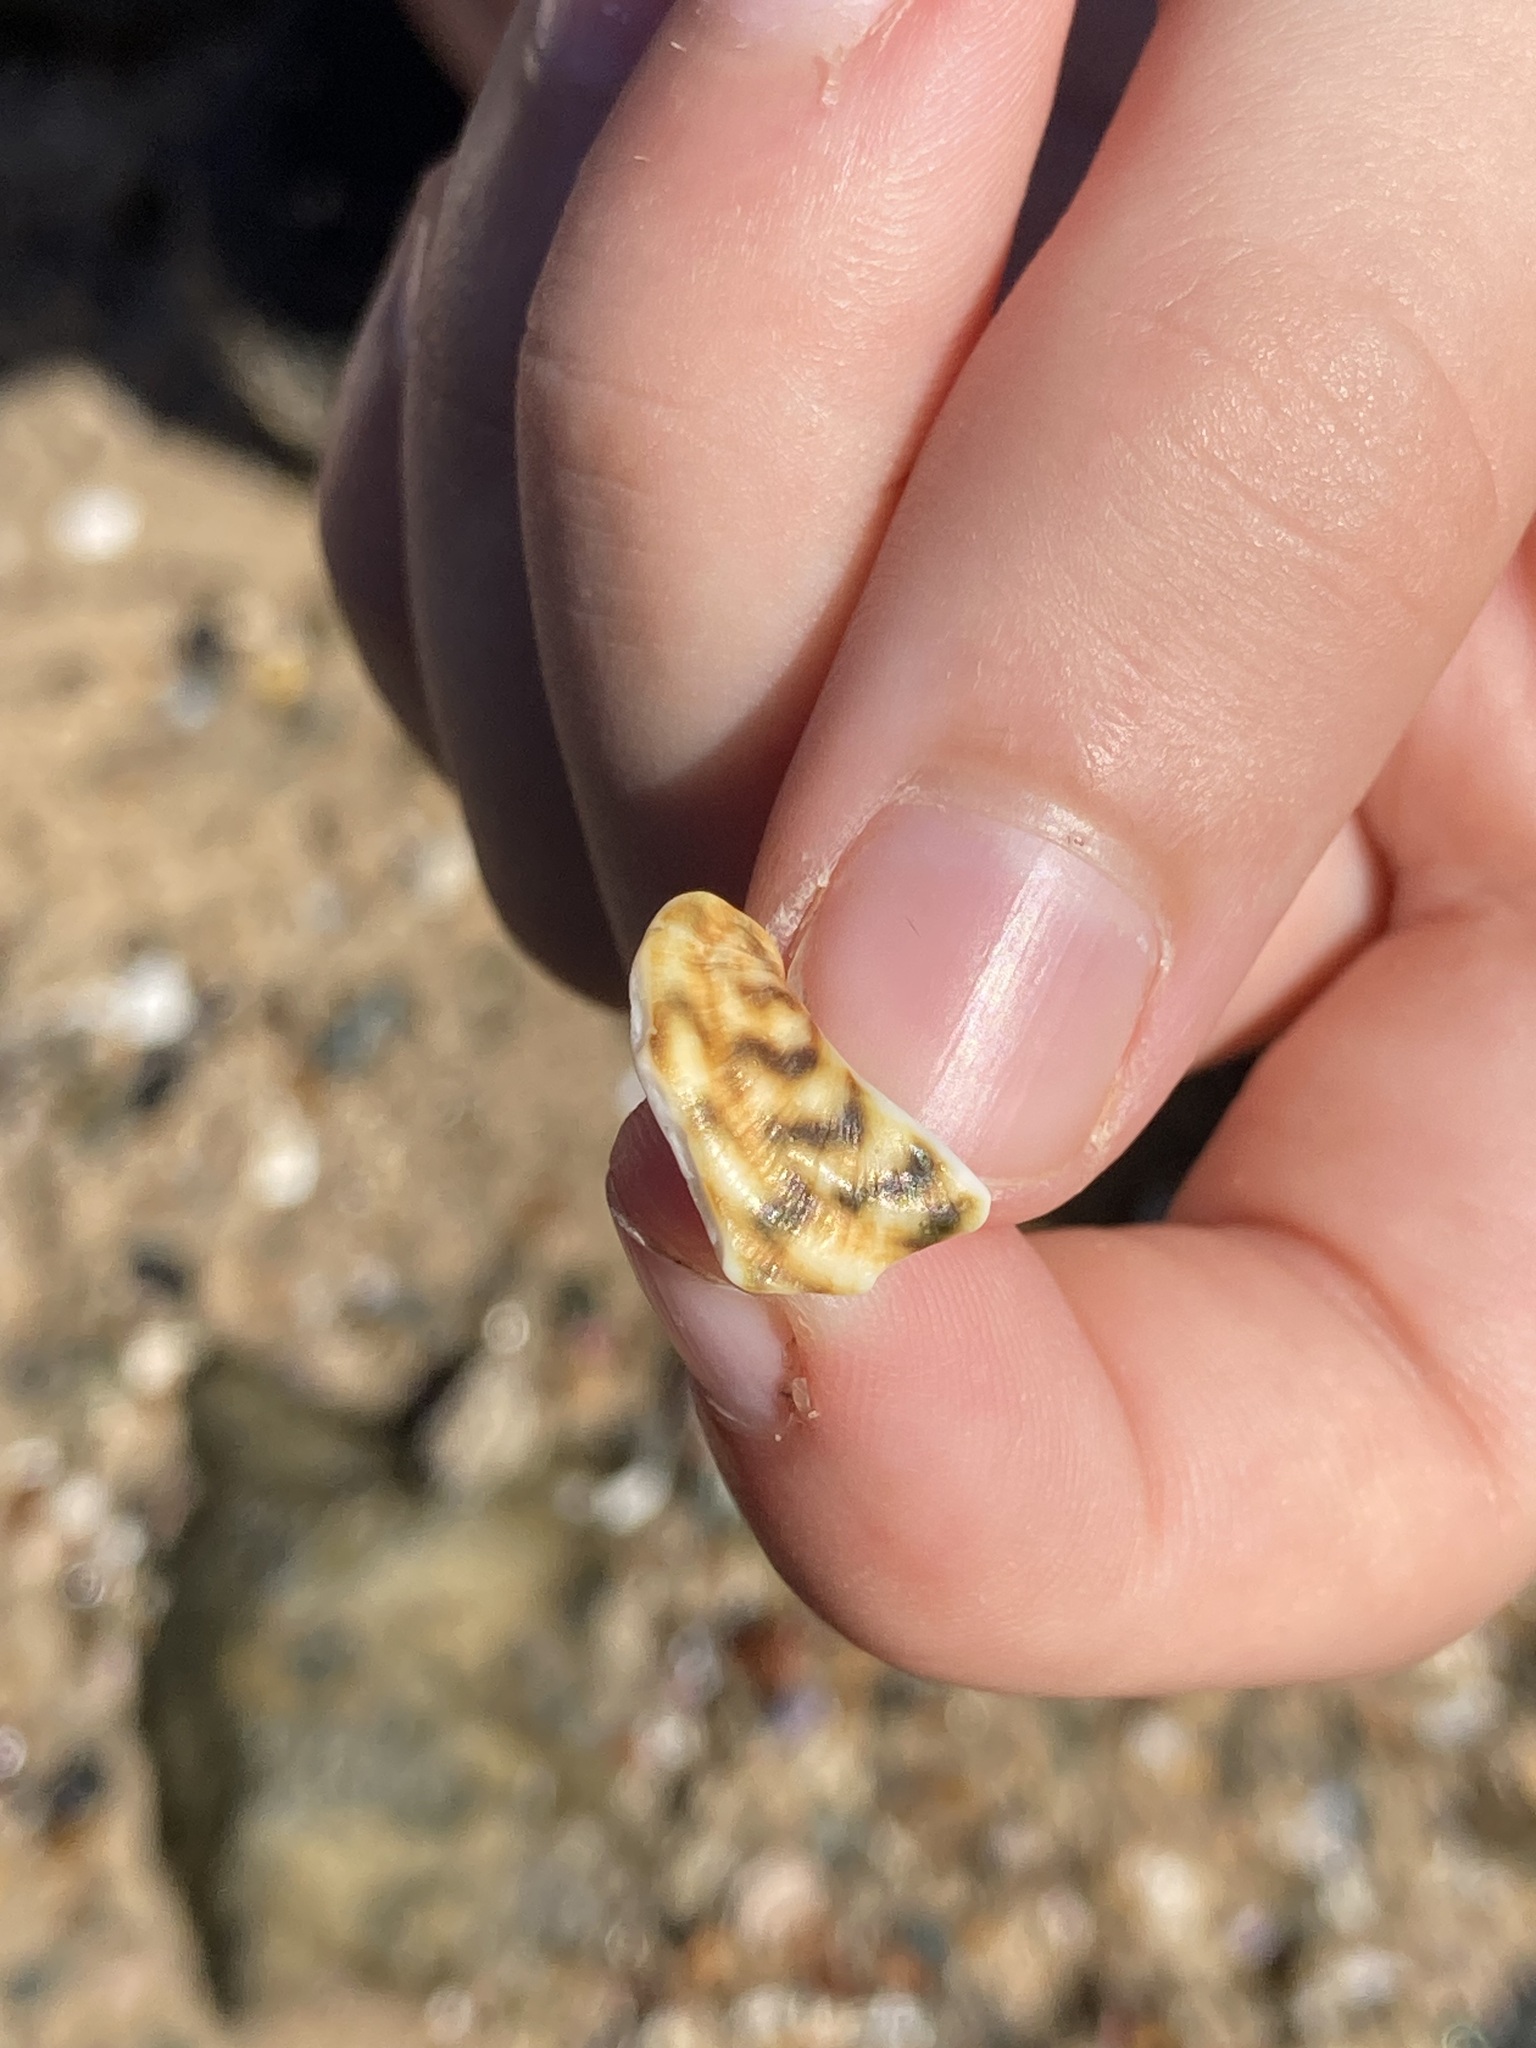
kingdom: Animalia
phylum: Mollusca
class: Gastropoda
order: Trochida
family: Turbinidae
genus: Lunella
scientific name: Lunella undulata
